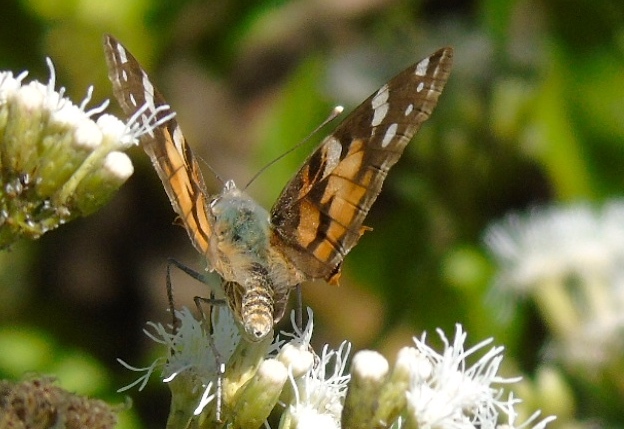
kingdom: Animalia
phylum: Arthropoda
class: Insecta
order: Lepidoptera
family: Nymphalidae
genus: Vanessa
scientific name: Vanessa cardui
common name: Painted lady
